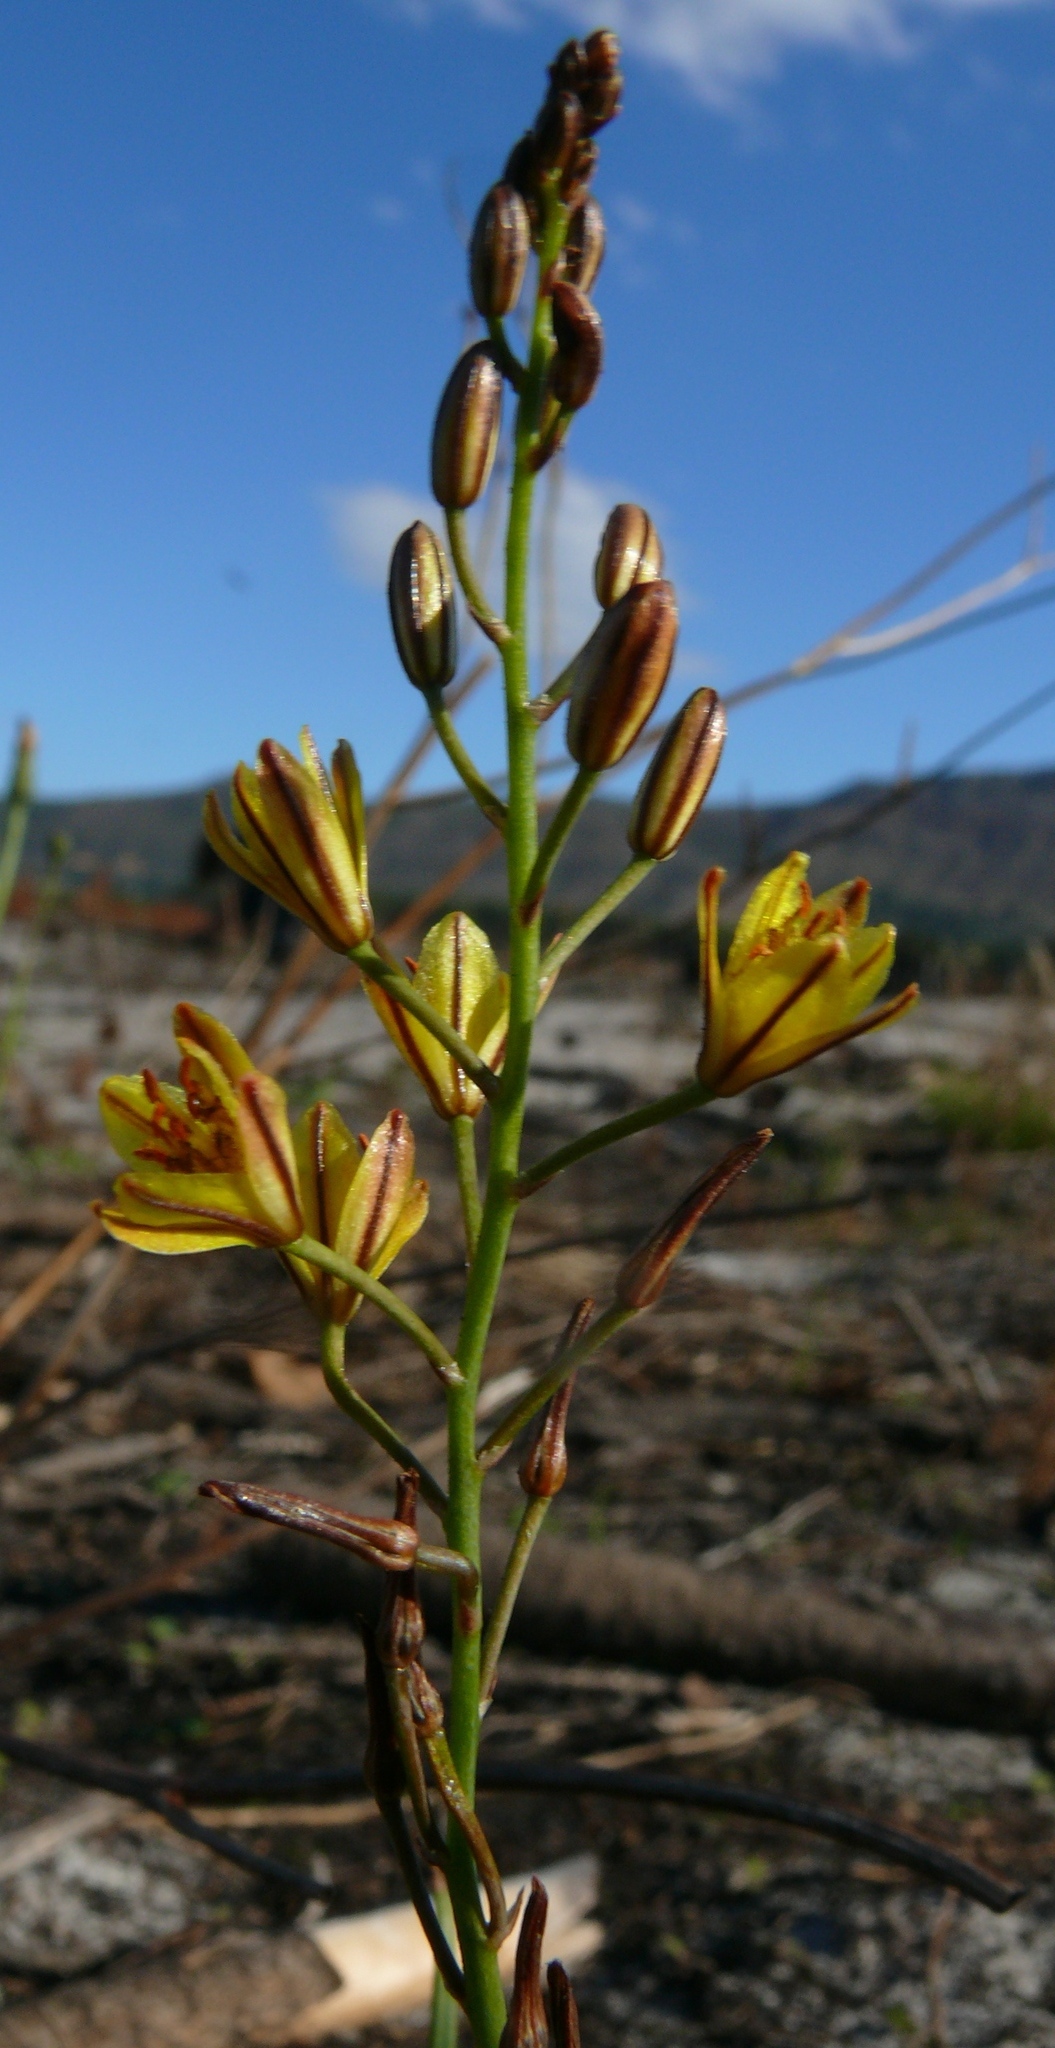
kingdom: Plantae
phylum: Tracheophyta
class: Liliopsida
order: Asparagales
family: Asphodelaceae
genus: Bulbine
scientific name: Bulbine favosa
